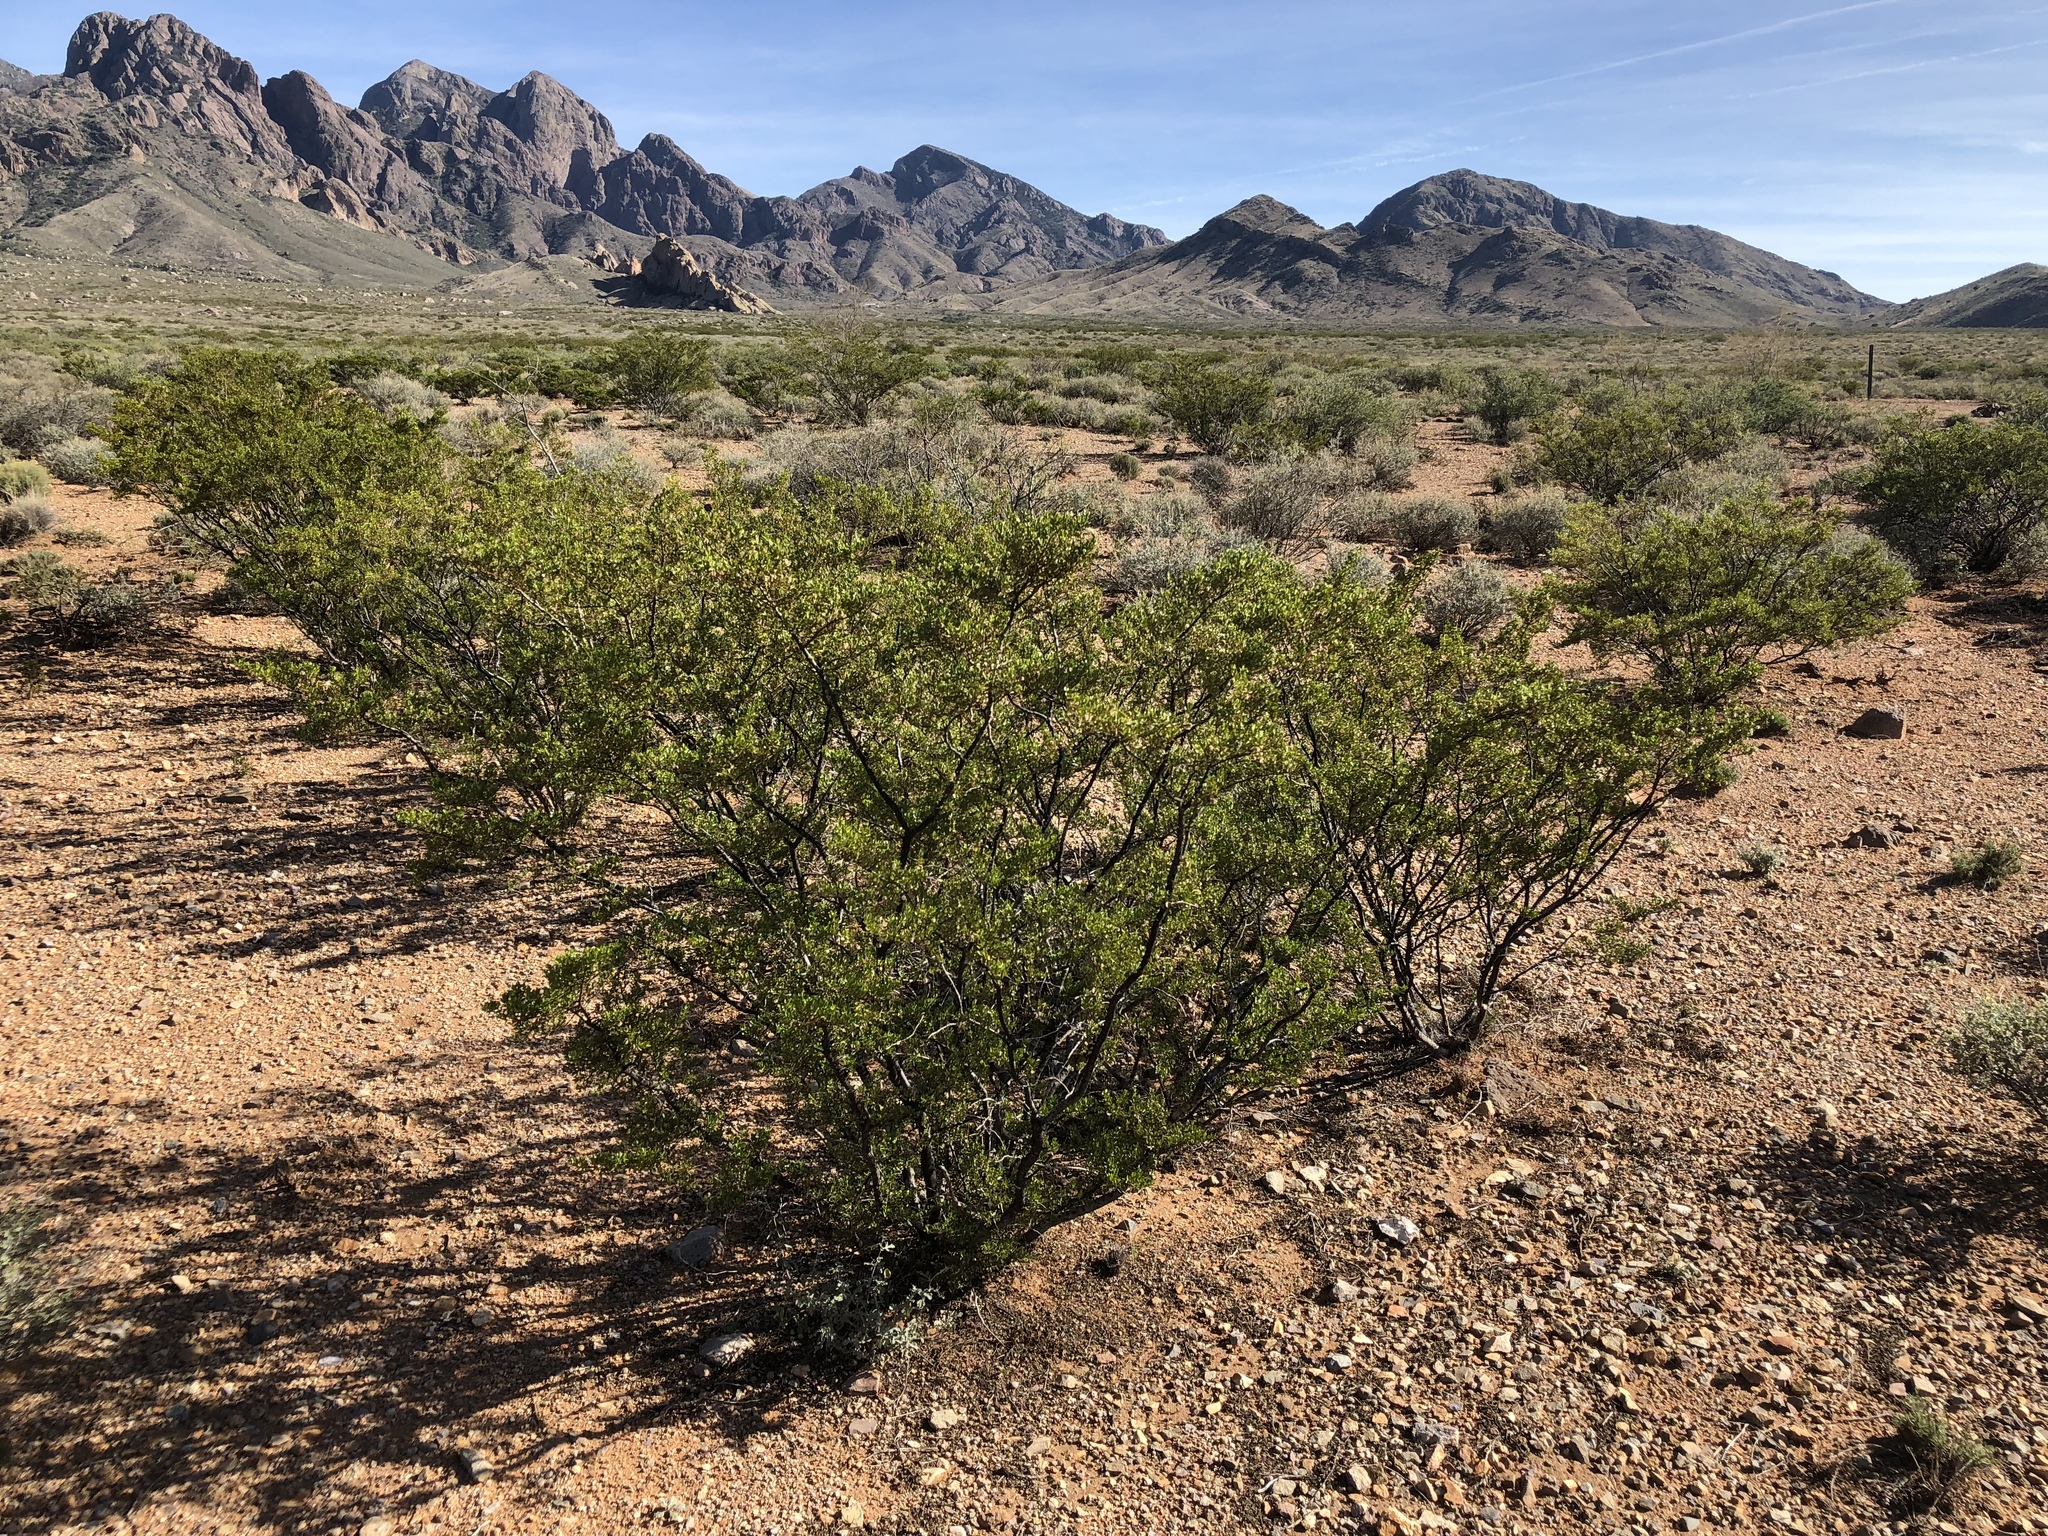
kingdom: Plantae
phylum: Tracheophyta
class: Magnoliopsida
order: Zygophyllales
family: Zygophyllaceae
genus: Larrea
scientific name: Larrea tridentata
